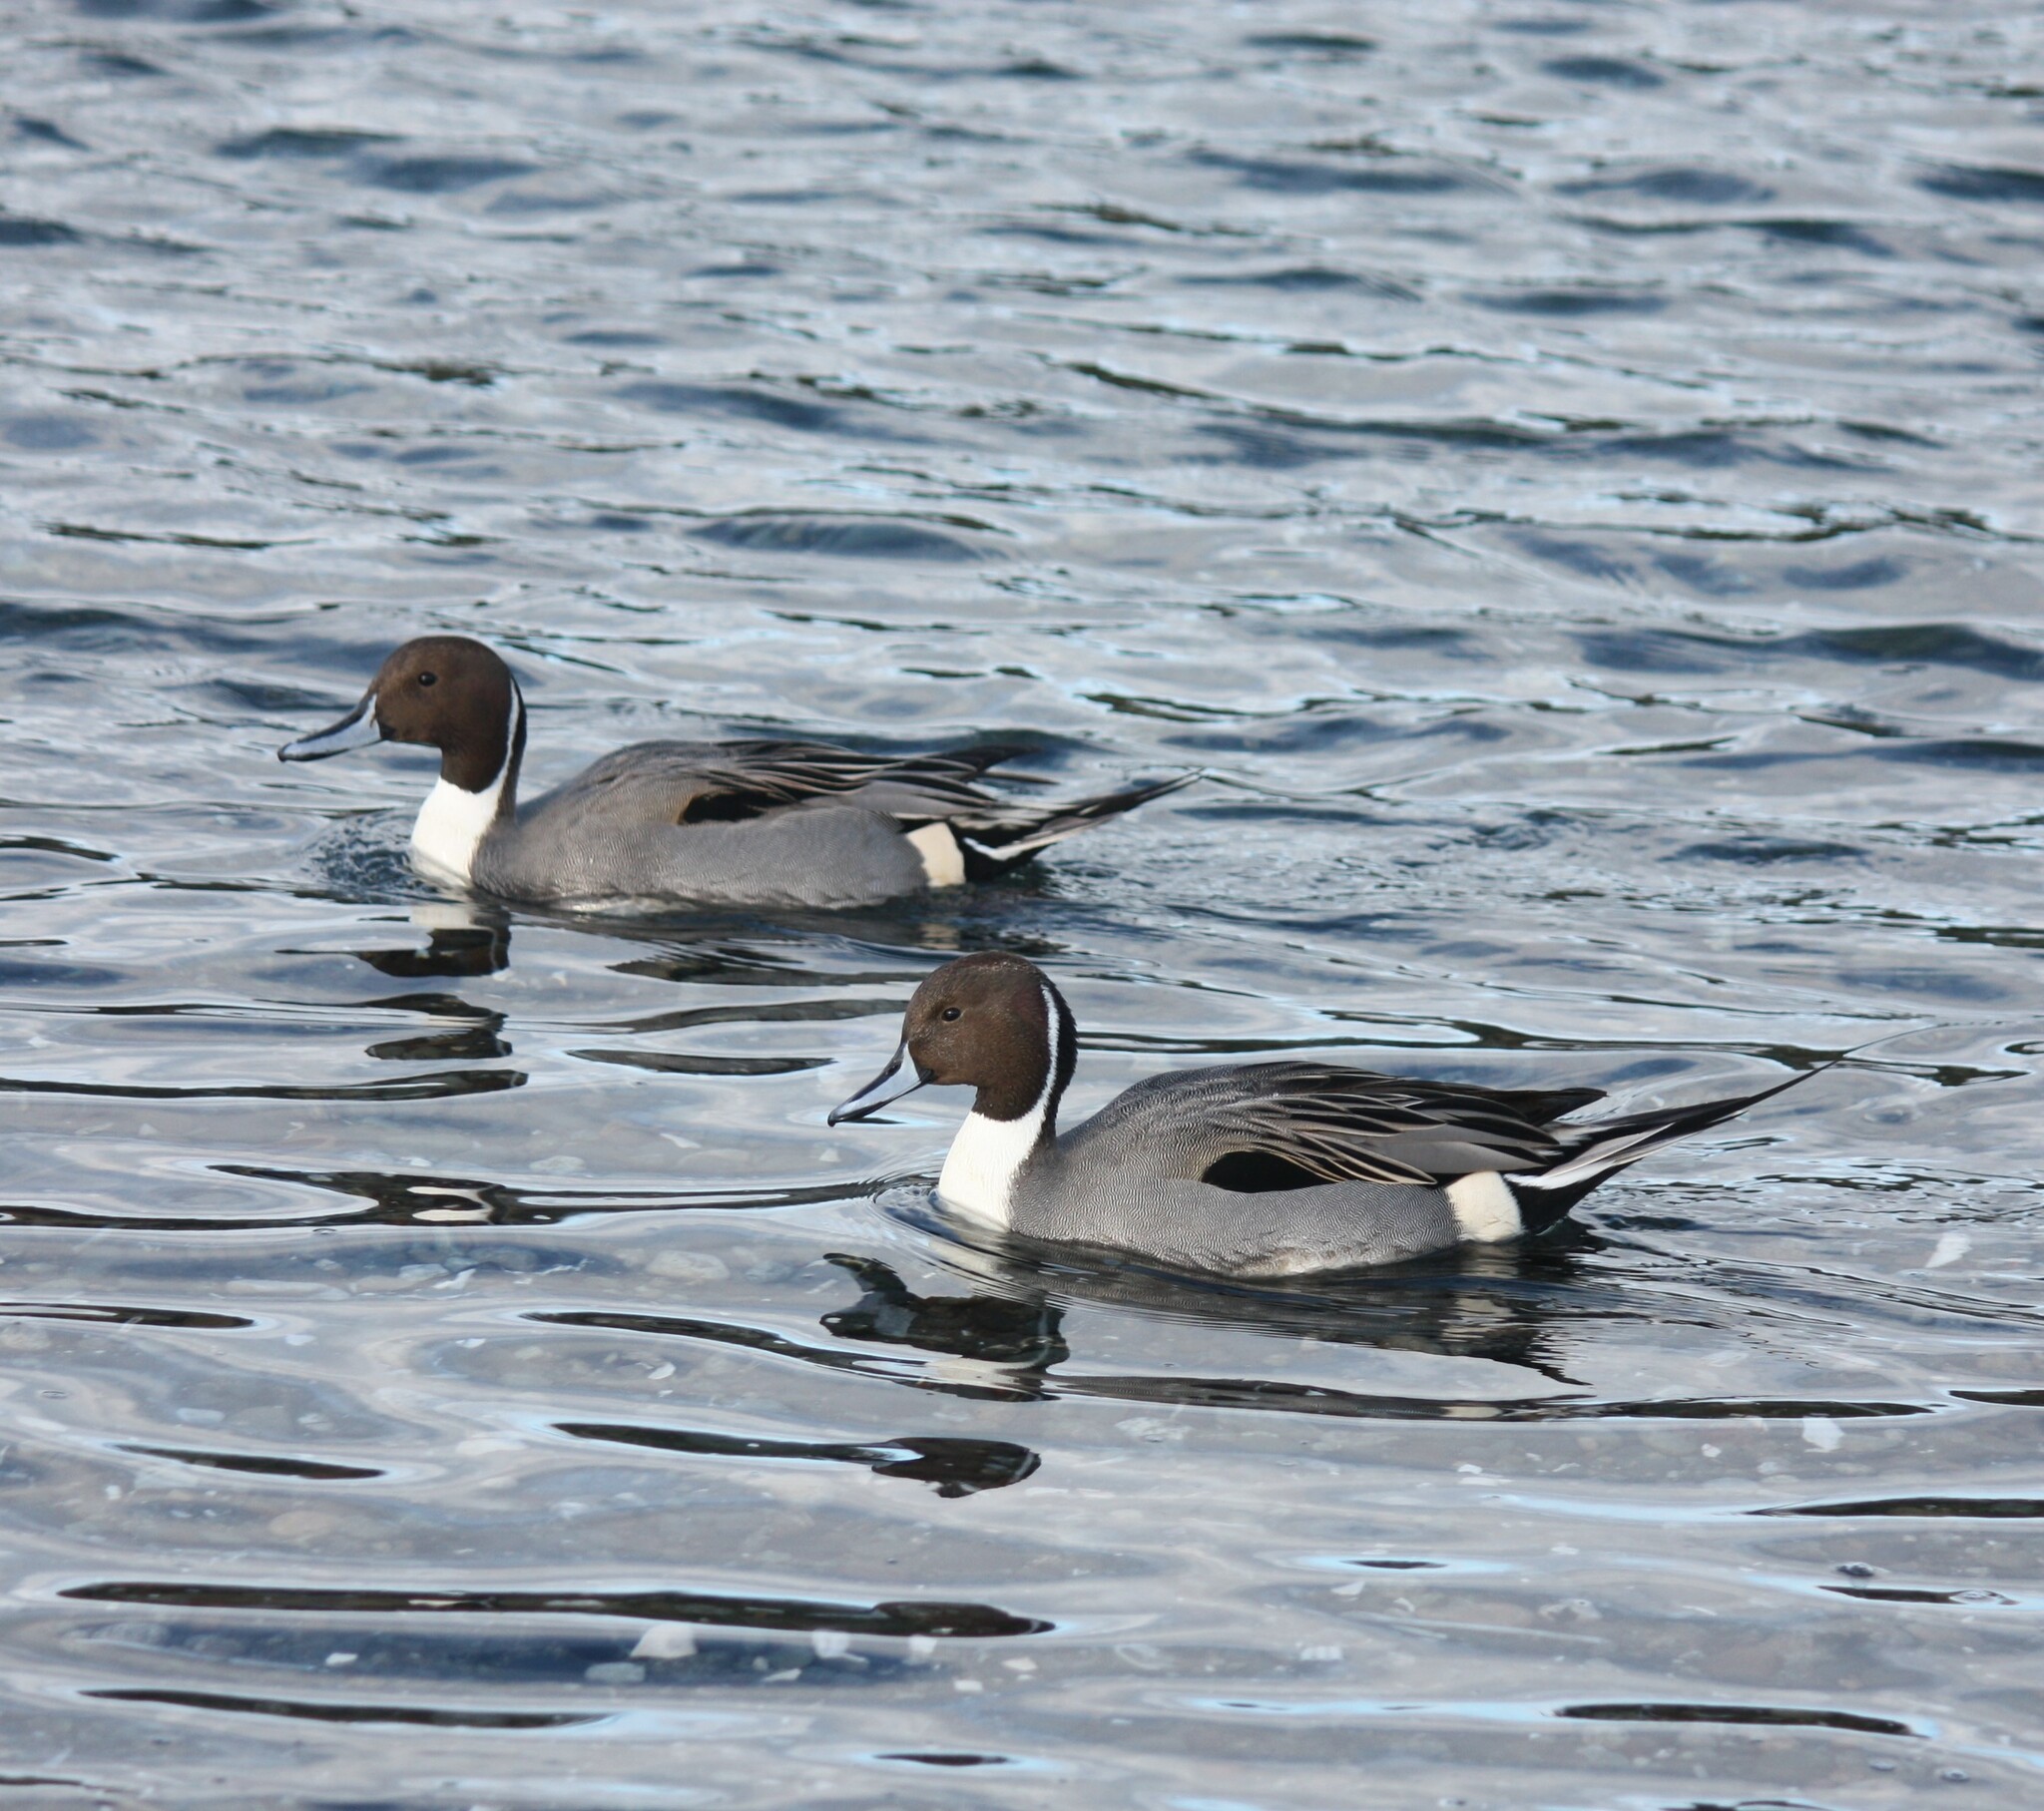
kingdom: Animalia
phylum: Chordata
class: Aves
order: Anseriformes
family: Anatidae
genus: Anas
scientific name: Anas acuta
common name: Northern pintail
